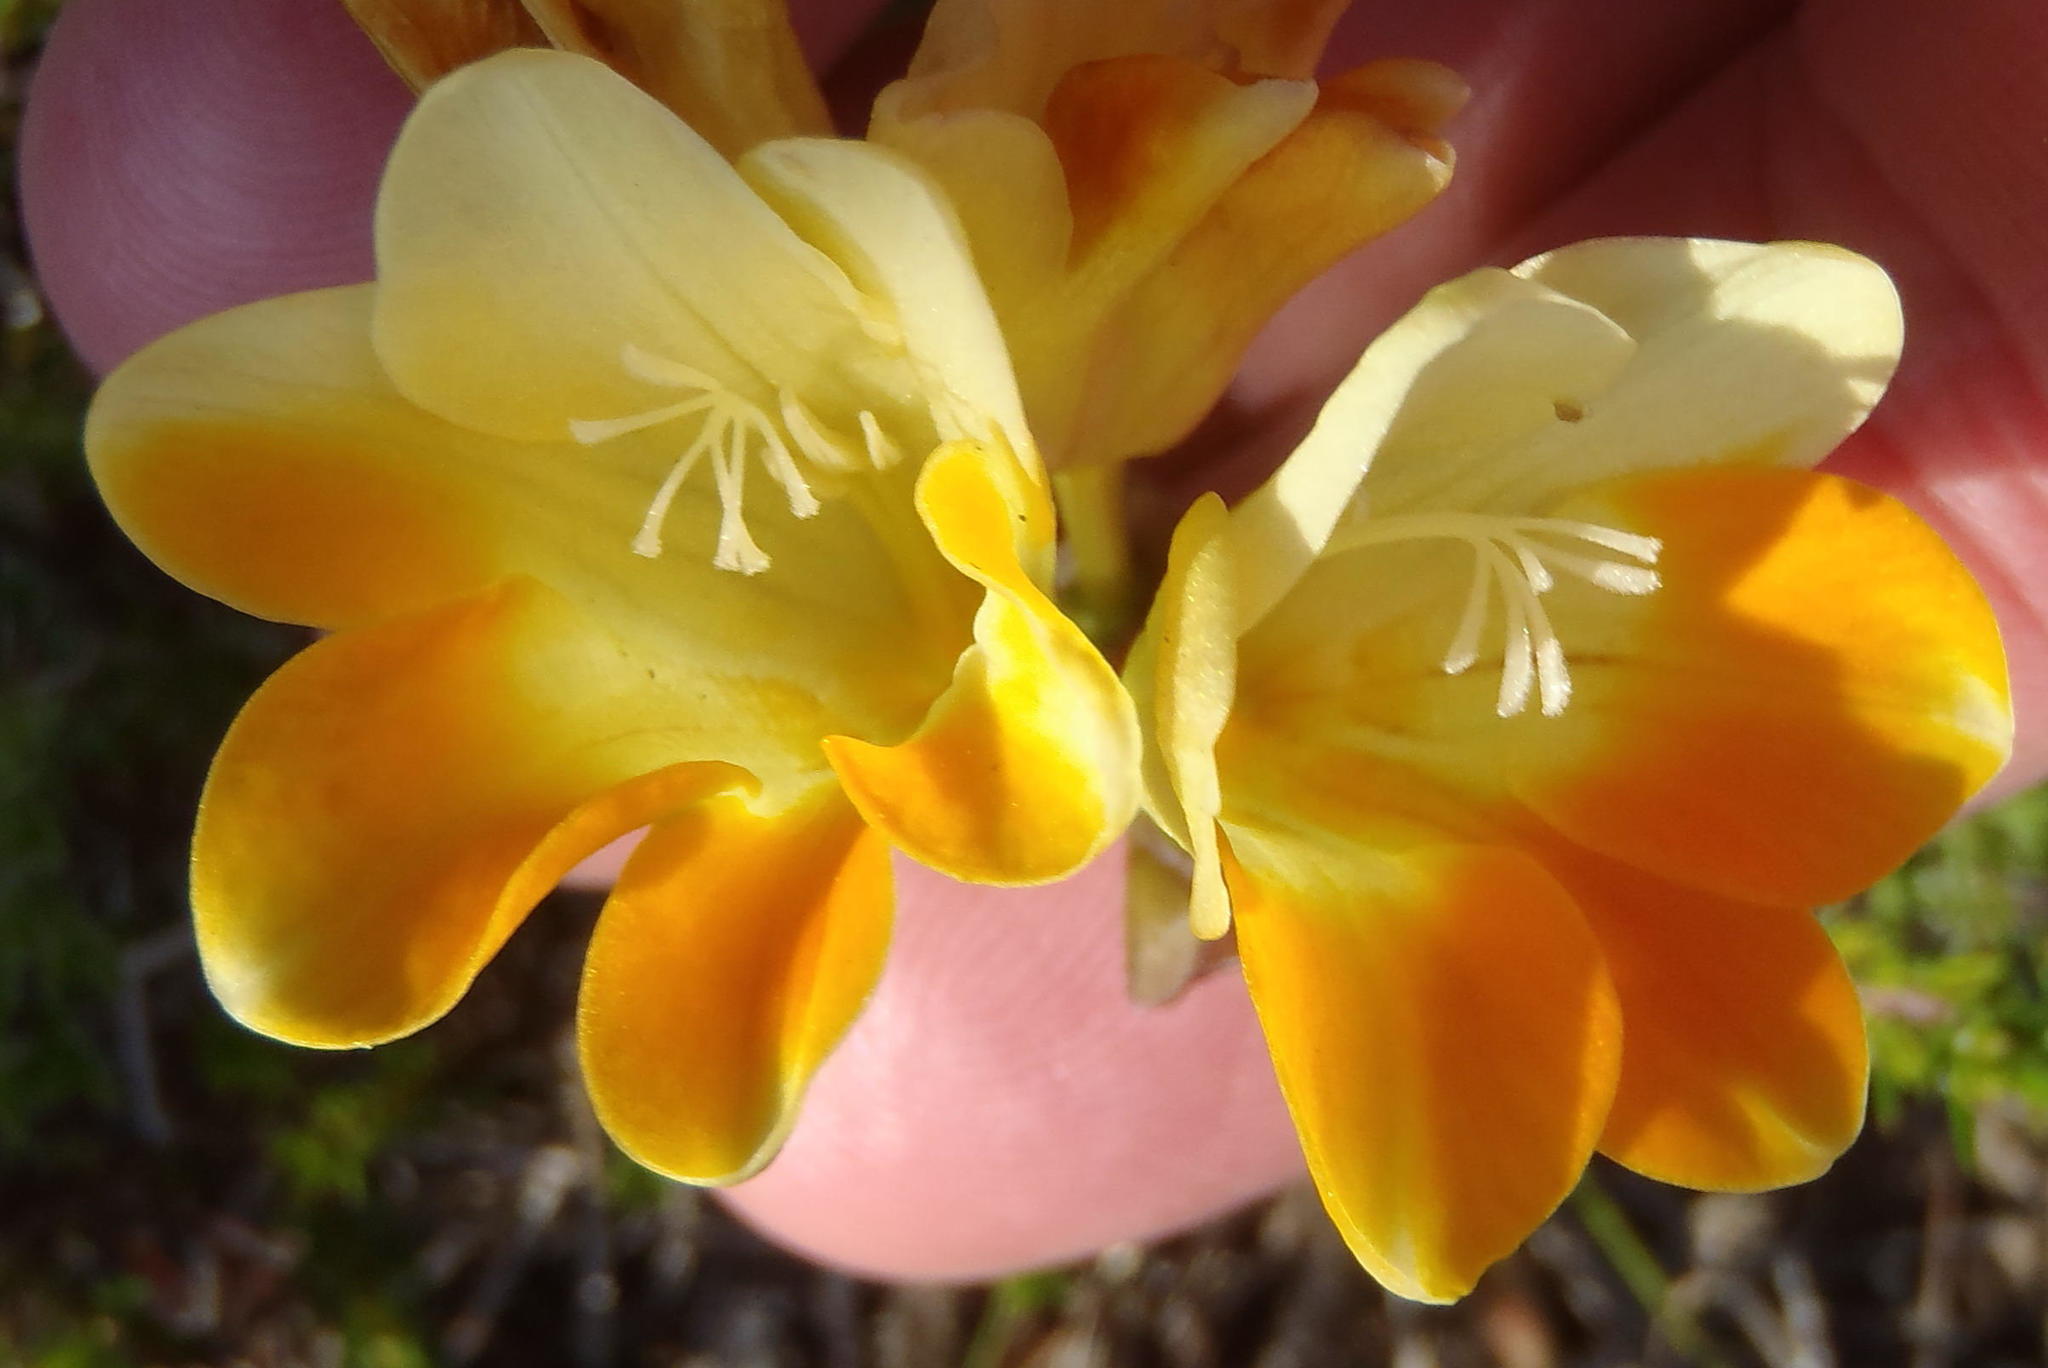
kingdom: Plantae
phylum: Tracheophyta
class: Liliopsida
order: Asparagales
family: Iridaceae
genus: Freesia
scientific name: Freesia fergusoniae
